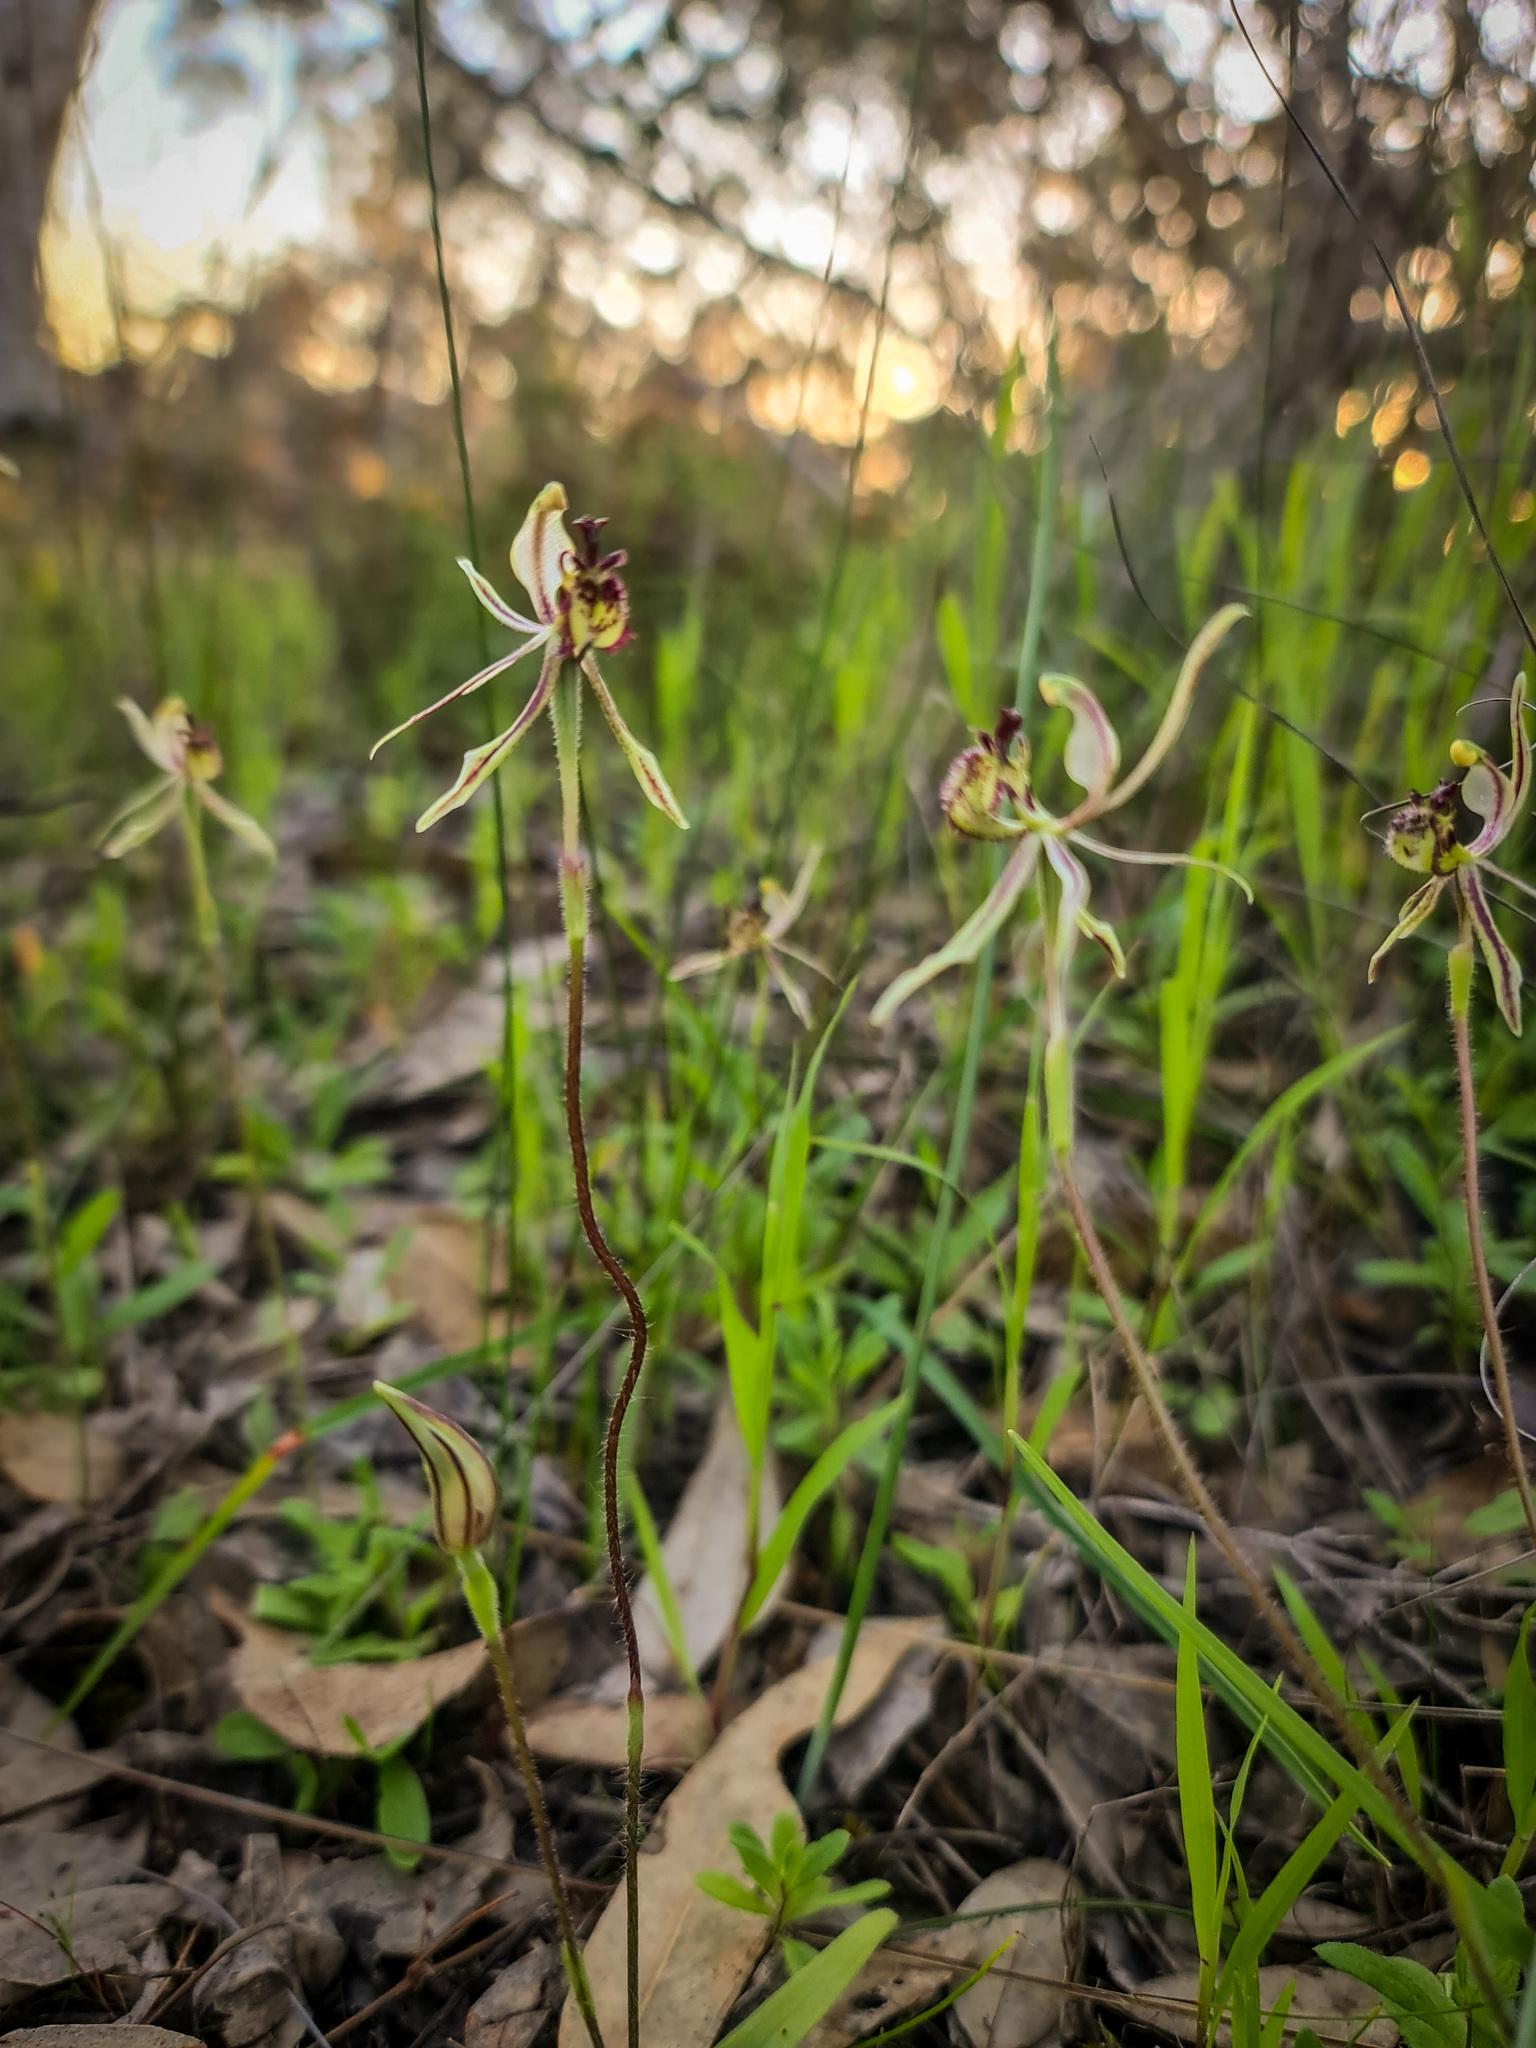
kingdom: Plantae
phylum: Tracheophyta
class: Liliopsida
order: Asparagales
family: Orchidaceae
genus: Caladenia
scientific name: Caladenia barbarossa
